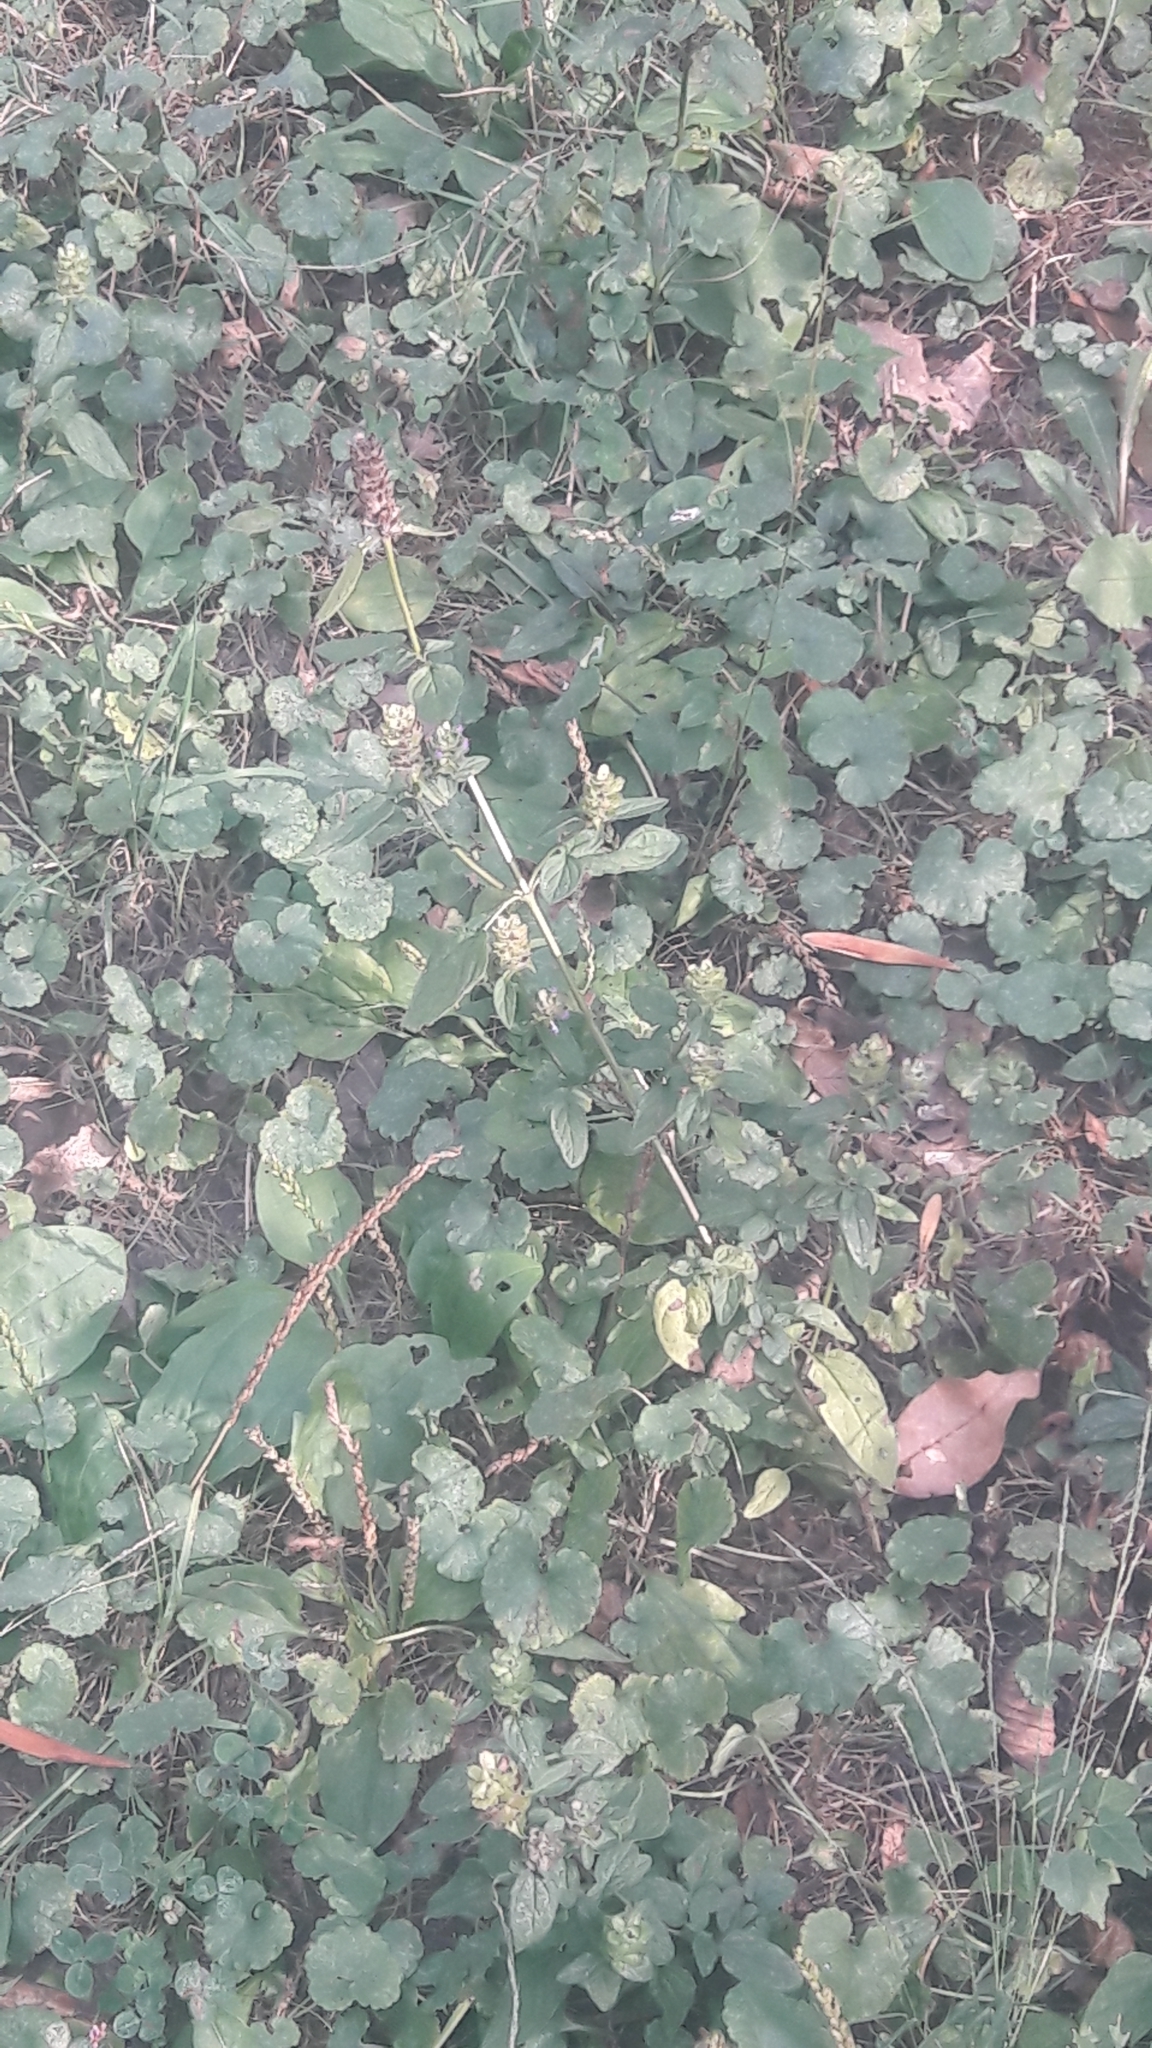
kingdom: Plantae
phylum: Tracheophyta
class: Magnoliopsida
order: Lamiales
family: Lamiaceae
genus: Prunella
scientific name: Prunella vulgaris
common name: Heal-all
